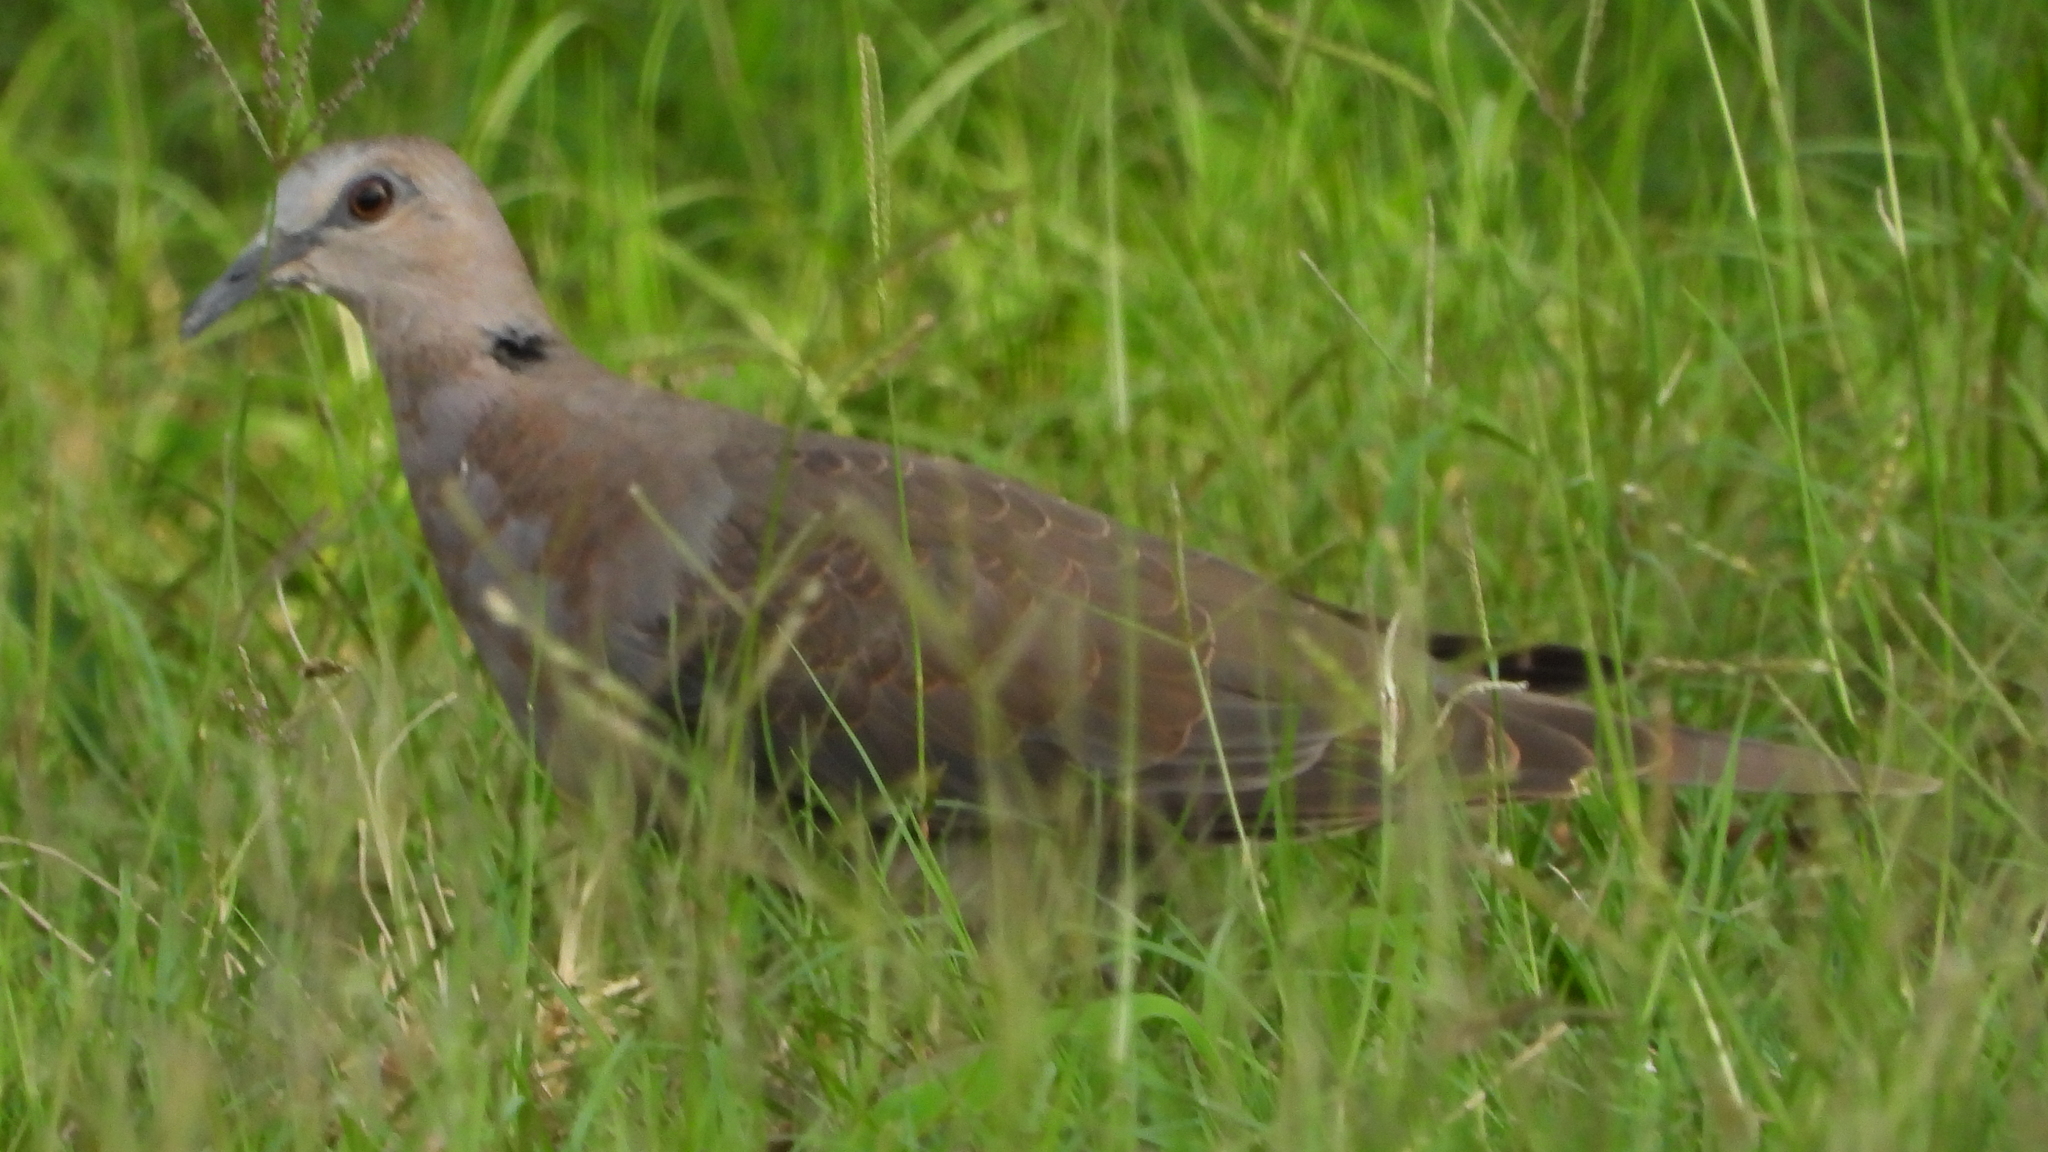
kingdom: Animalia
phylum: Chordata
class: Aves
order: Columbiformes
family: Columbidae
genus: Streptopelia
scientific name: Streptopelia semitorquata
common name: Red-eyed dove
